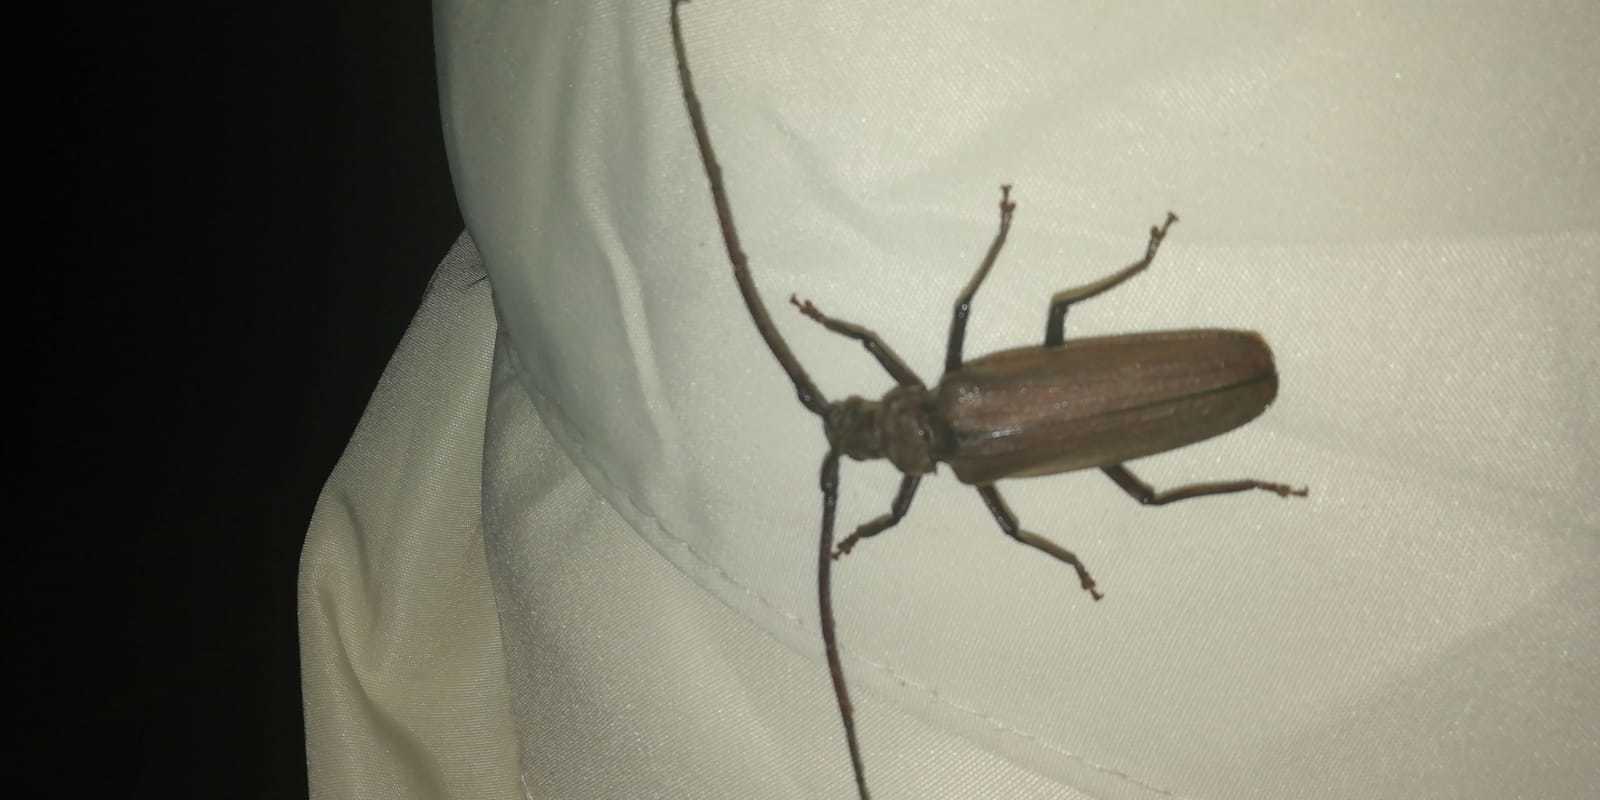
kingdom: Animalia
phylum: Arthropoda
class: Insecta
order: Coleoptera
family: Cerambycidae
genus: Aegosoma
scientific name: Aegosoma scabricorne
